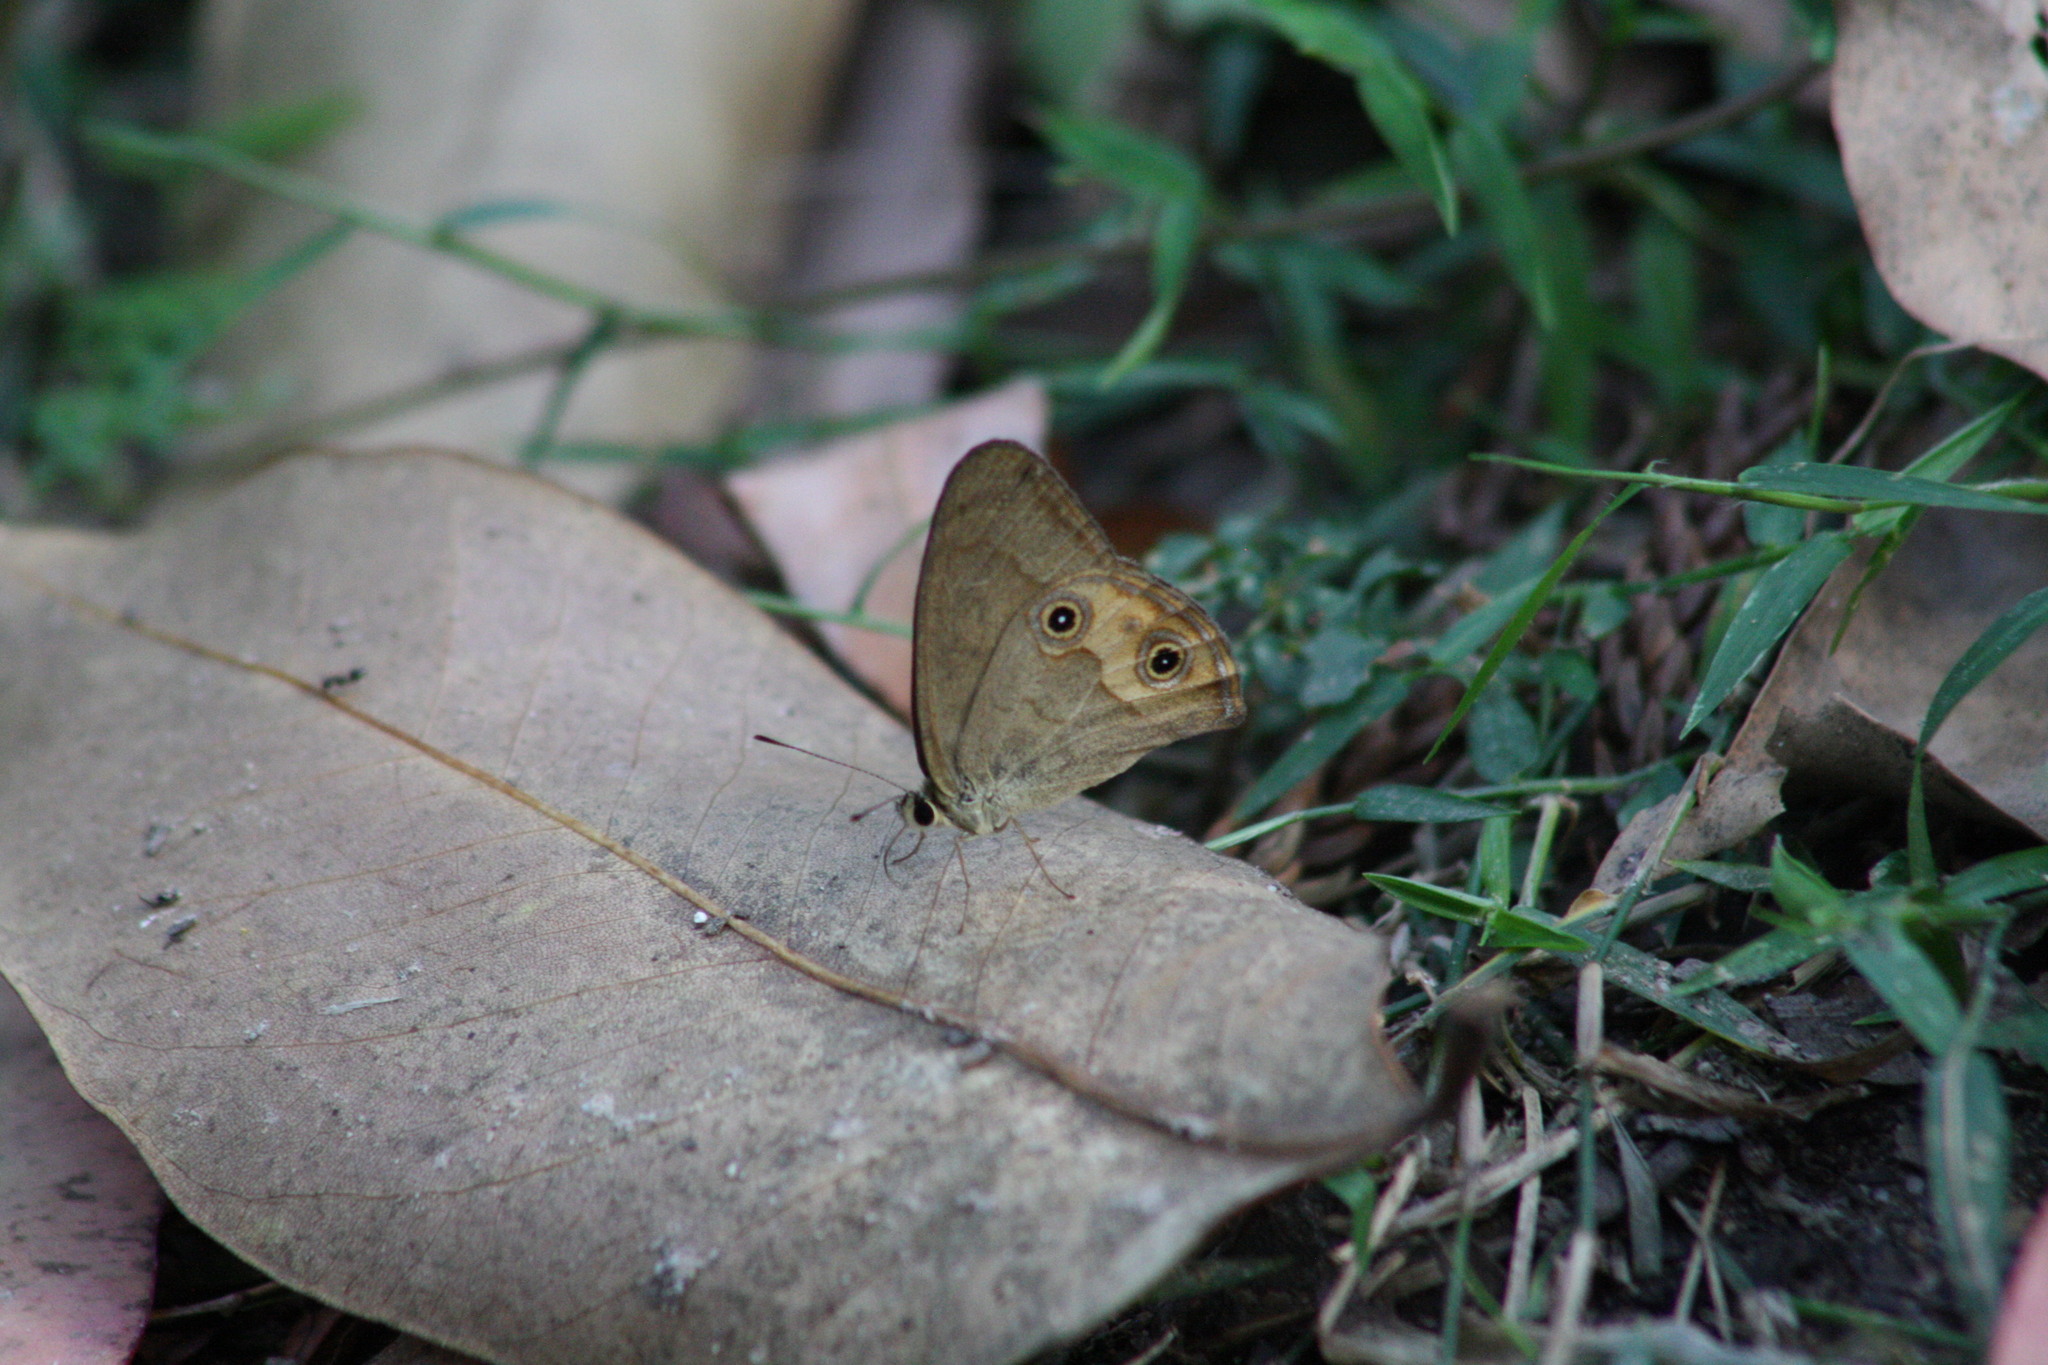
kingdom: Animalia
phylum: Arthropoda
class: Insecta
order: Lepidoptera
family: Nymphalidae
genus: Hypocysta
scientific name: Hypocysta metirius
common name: Brown ringlet
